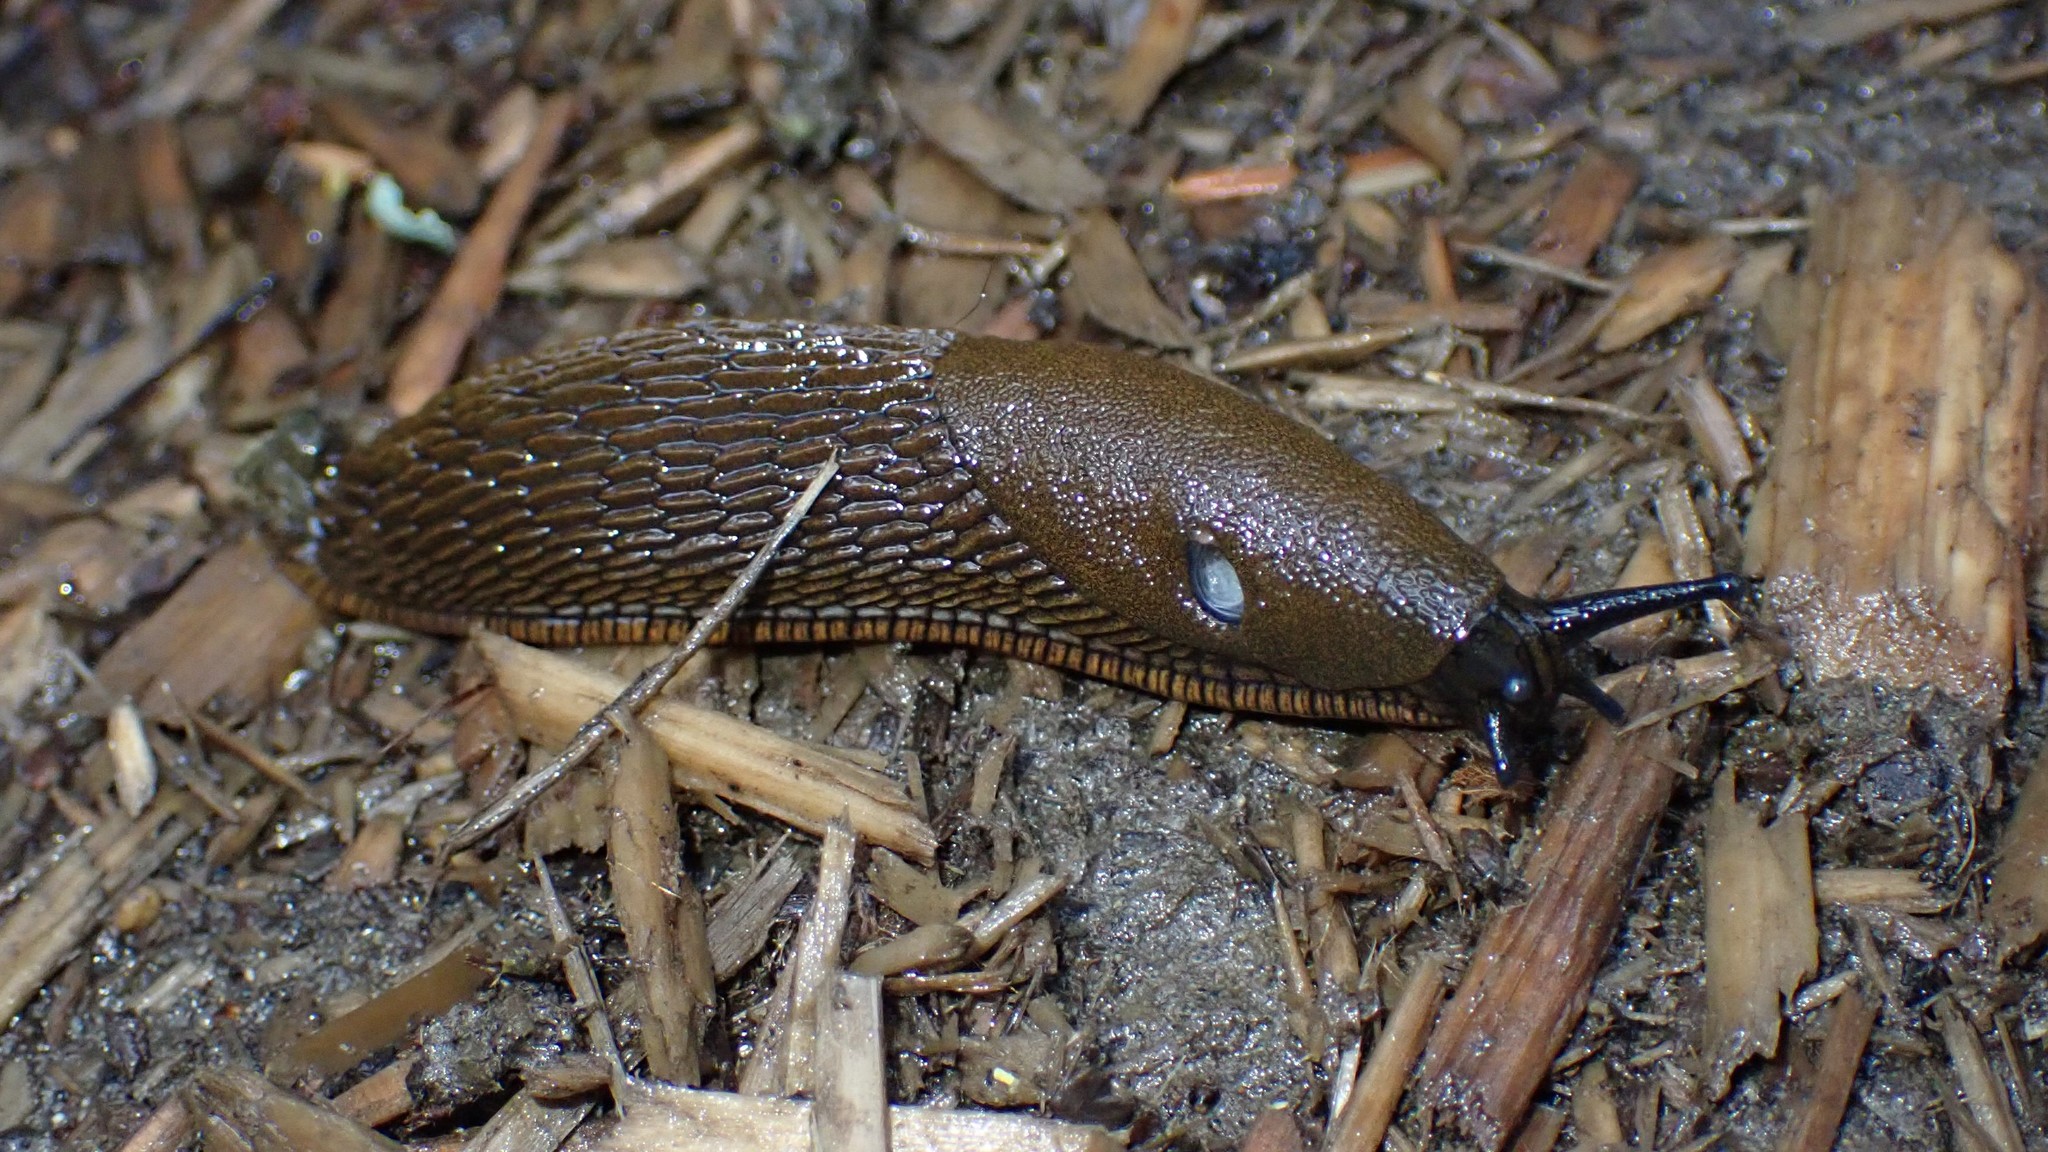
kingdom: Animalia
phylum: Mollusca
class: Gastropoda
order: Stylommatophora
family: Arionidae
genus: Arion
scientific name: Arion
